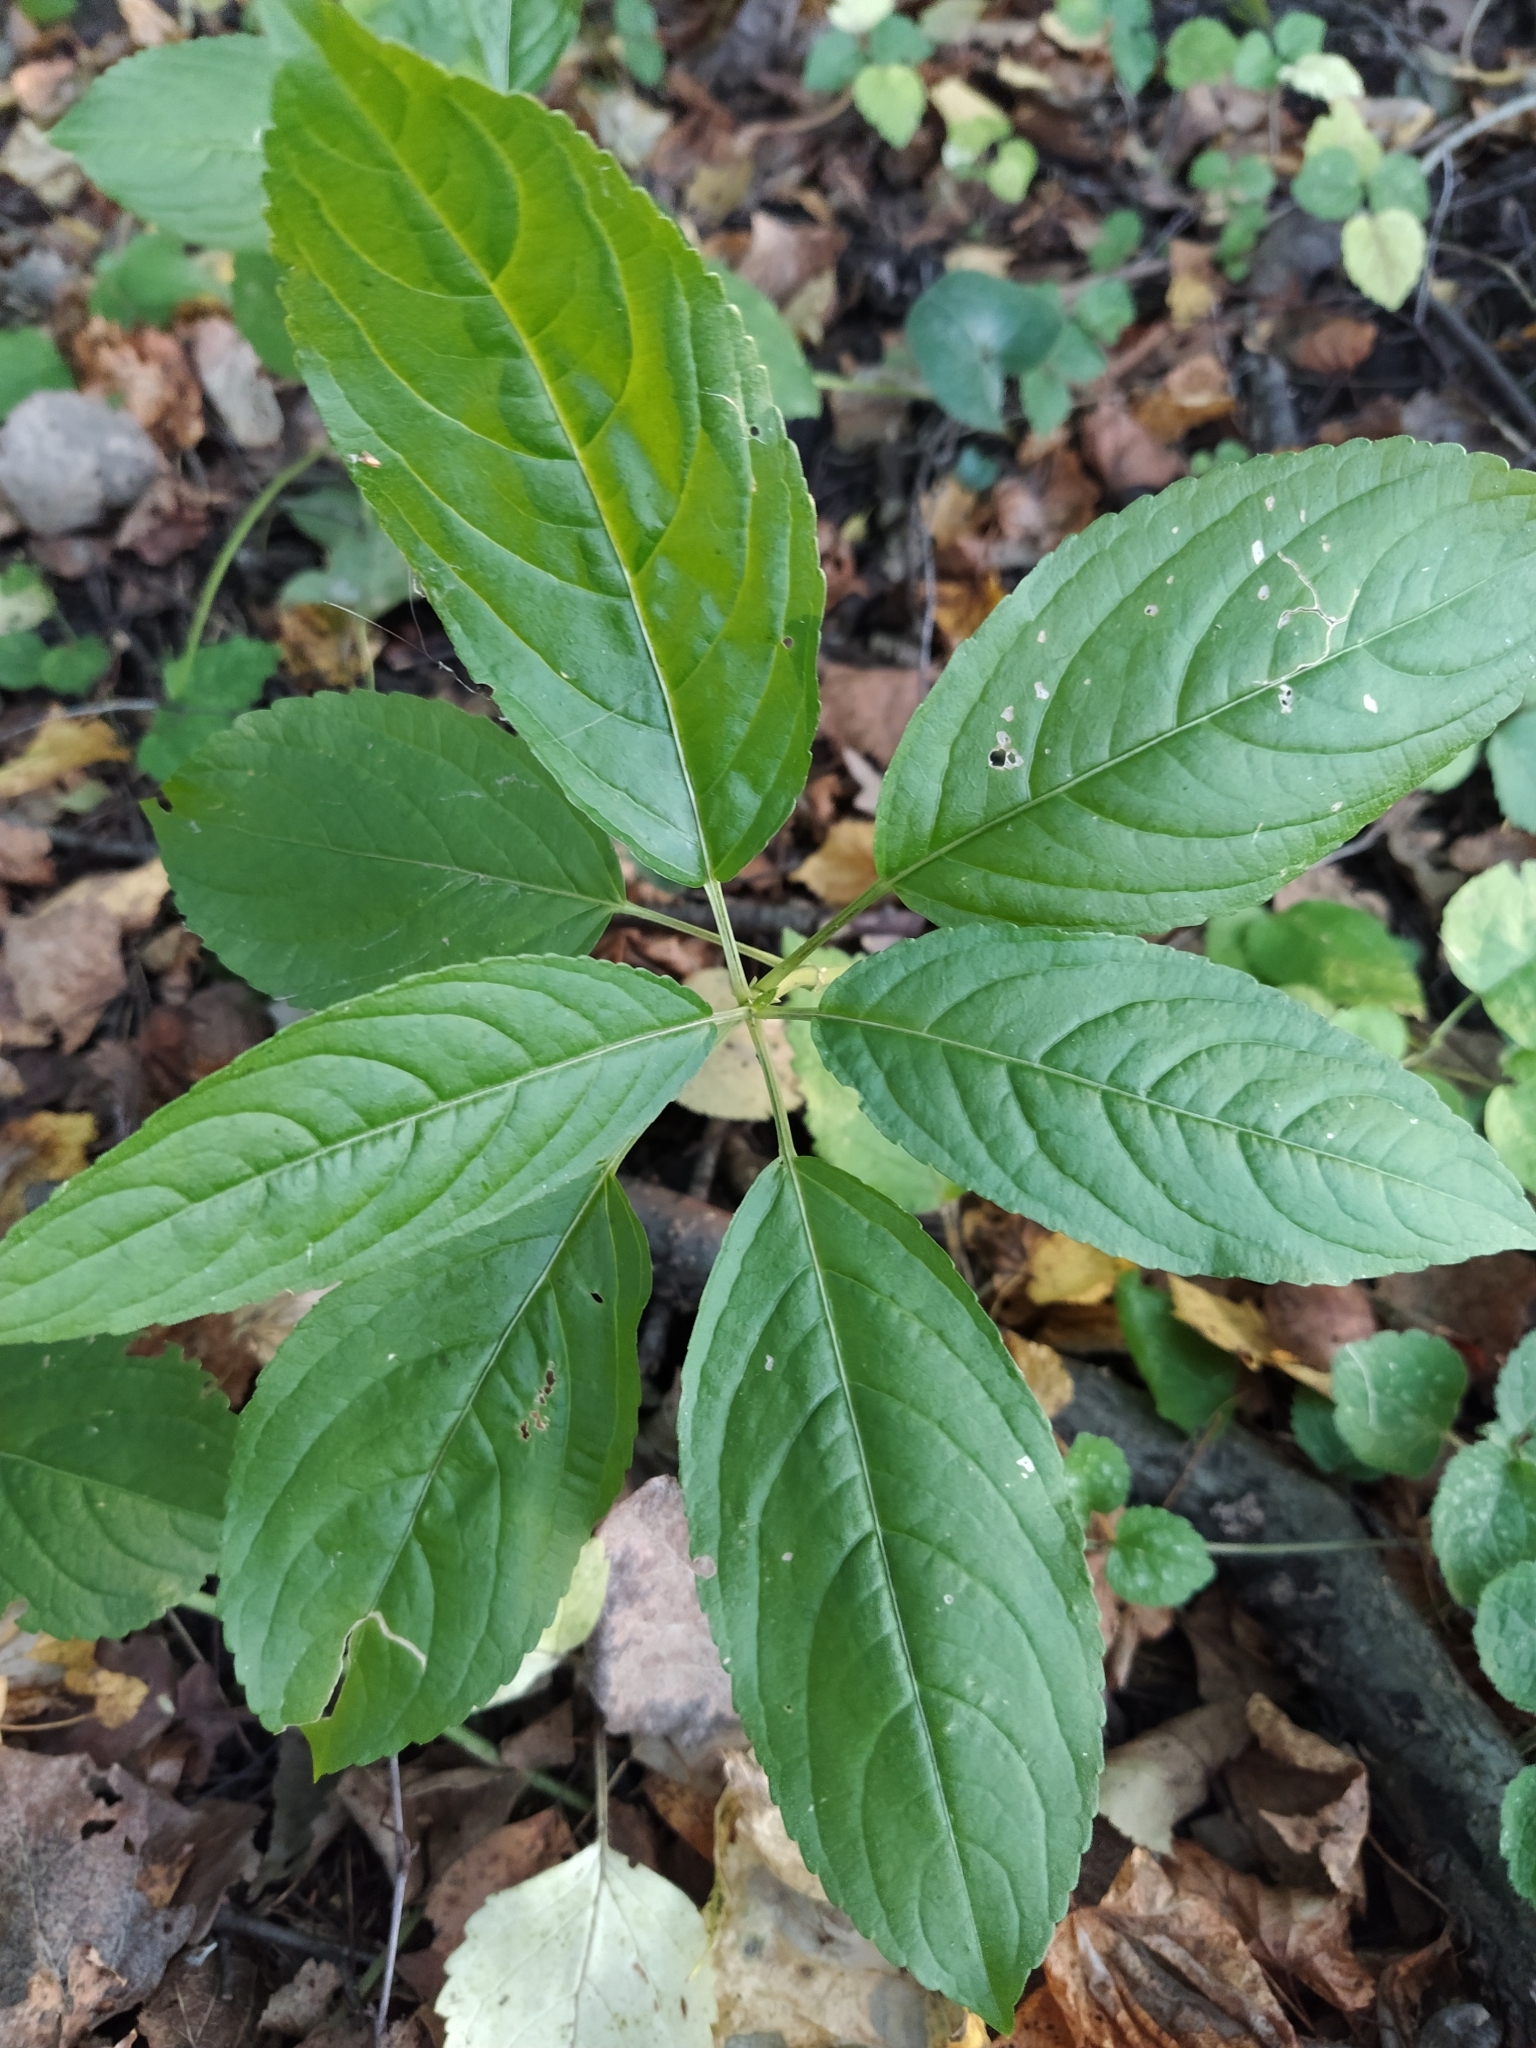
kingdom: Plantae
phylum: Tracheophyta
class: Magnoliopsida
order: Malpighiales
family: Euphorbiaceae
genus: Mercurialis
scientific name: Mercurialis perennis
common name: Dog mercury
